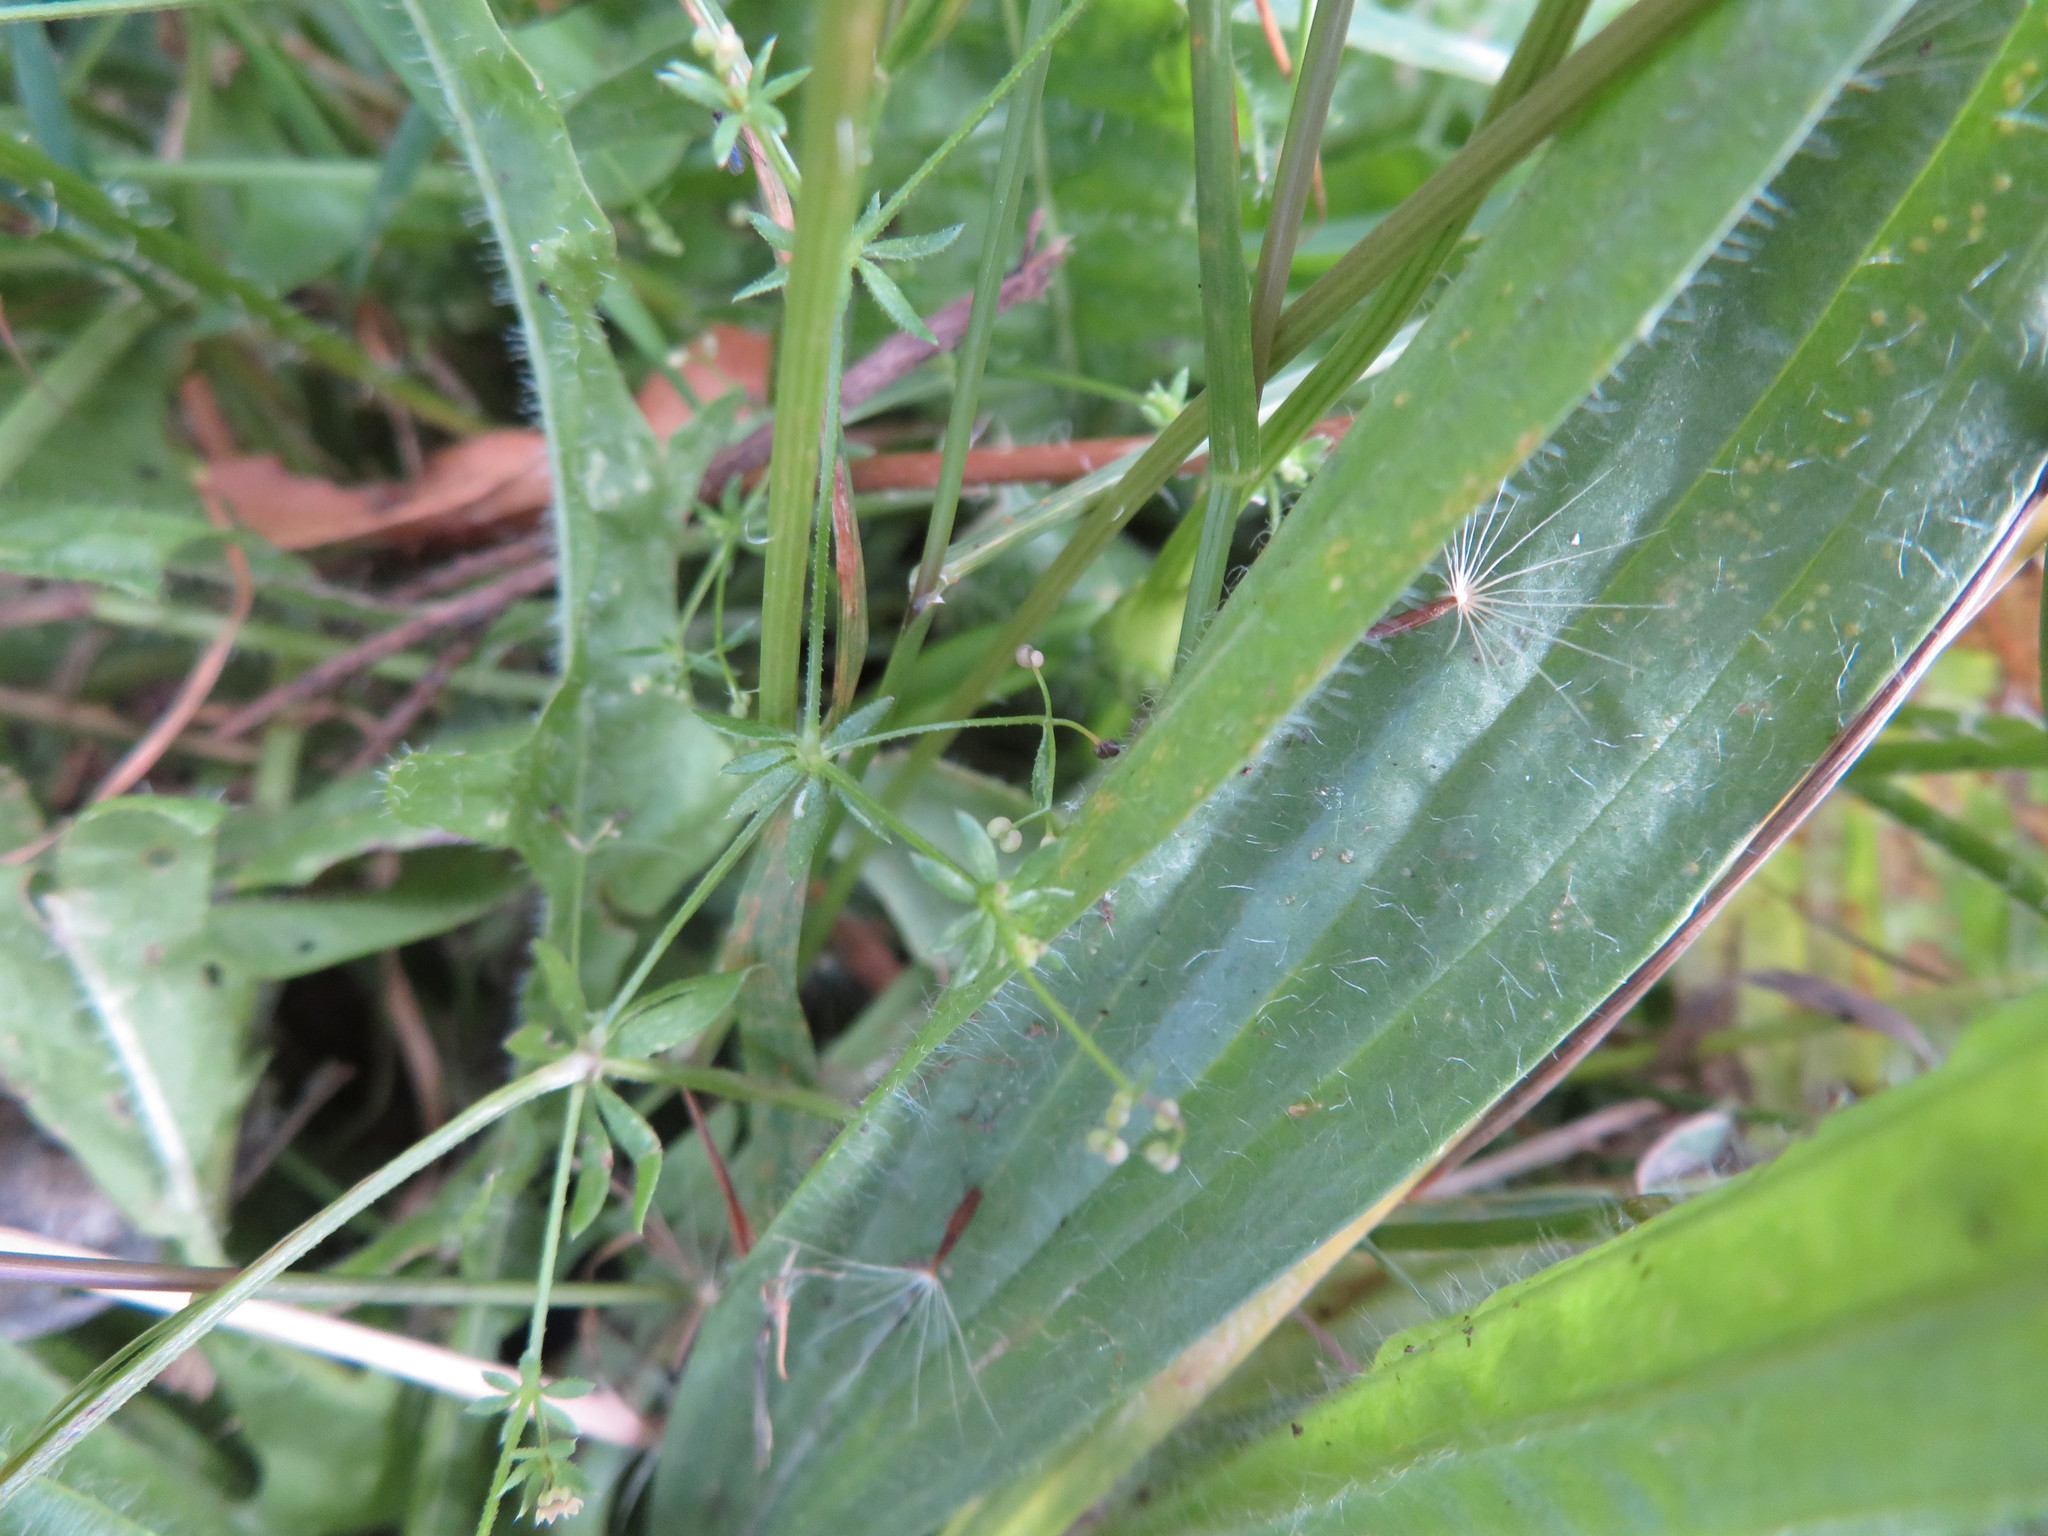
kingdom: Plantae
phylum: Tracheophyta
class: Magnoliopsida
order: Gentianales
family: Rubiaceae
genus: Galium
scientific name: Galium aparine
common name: Cleavers
